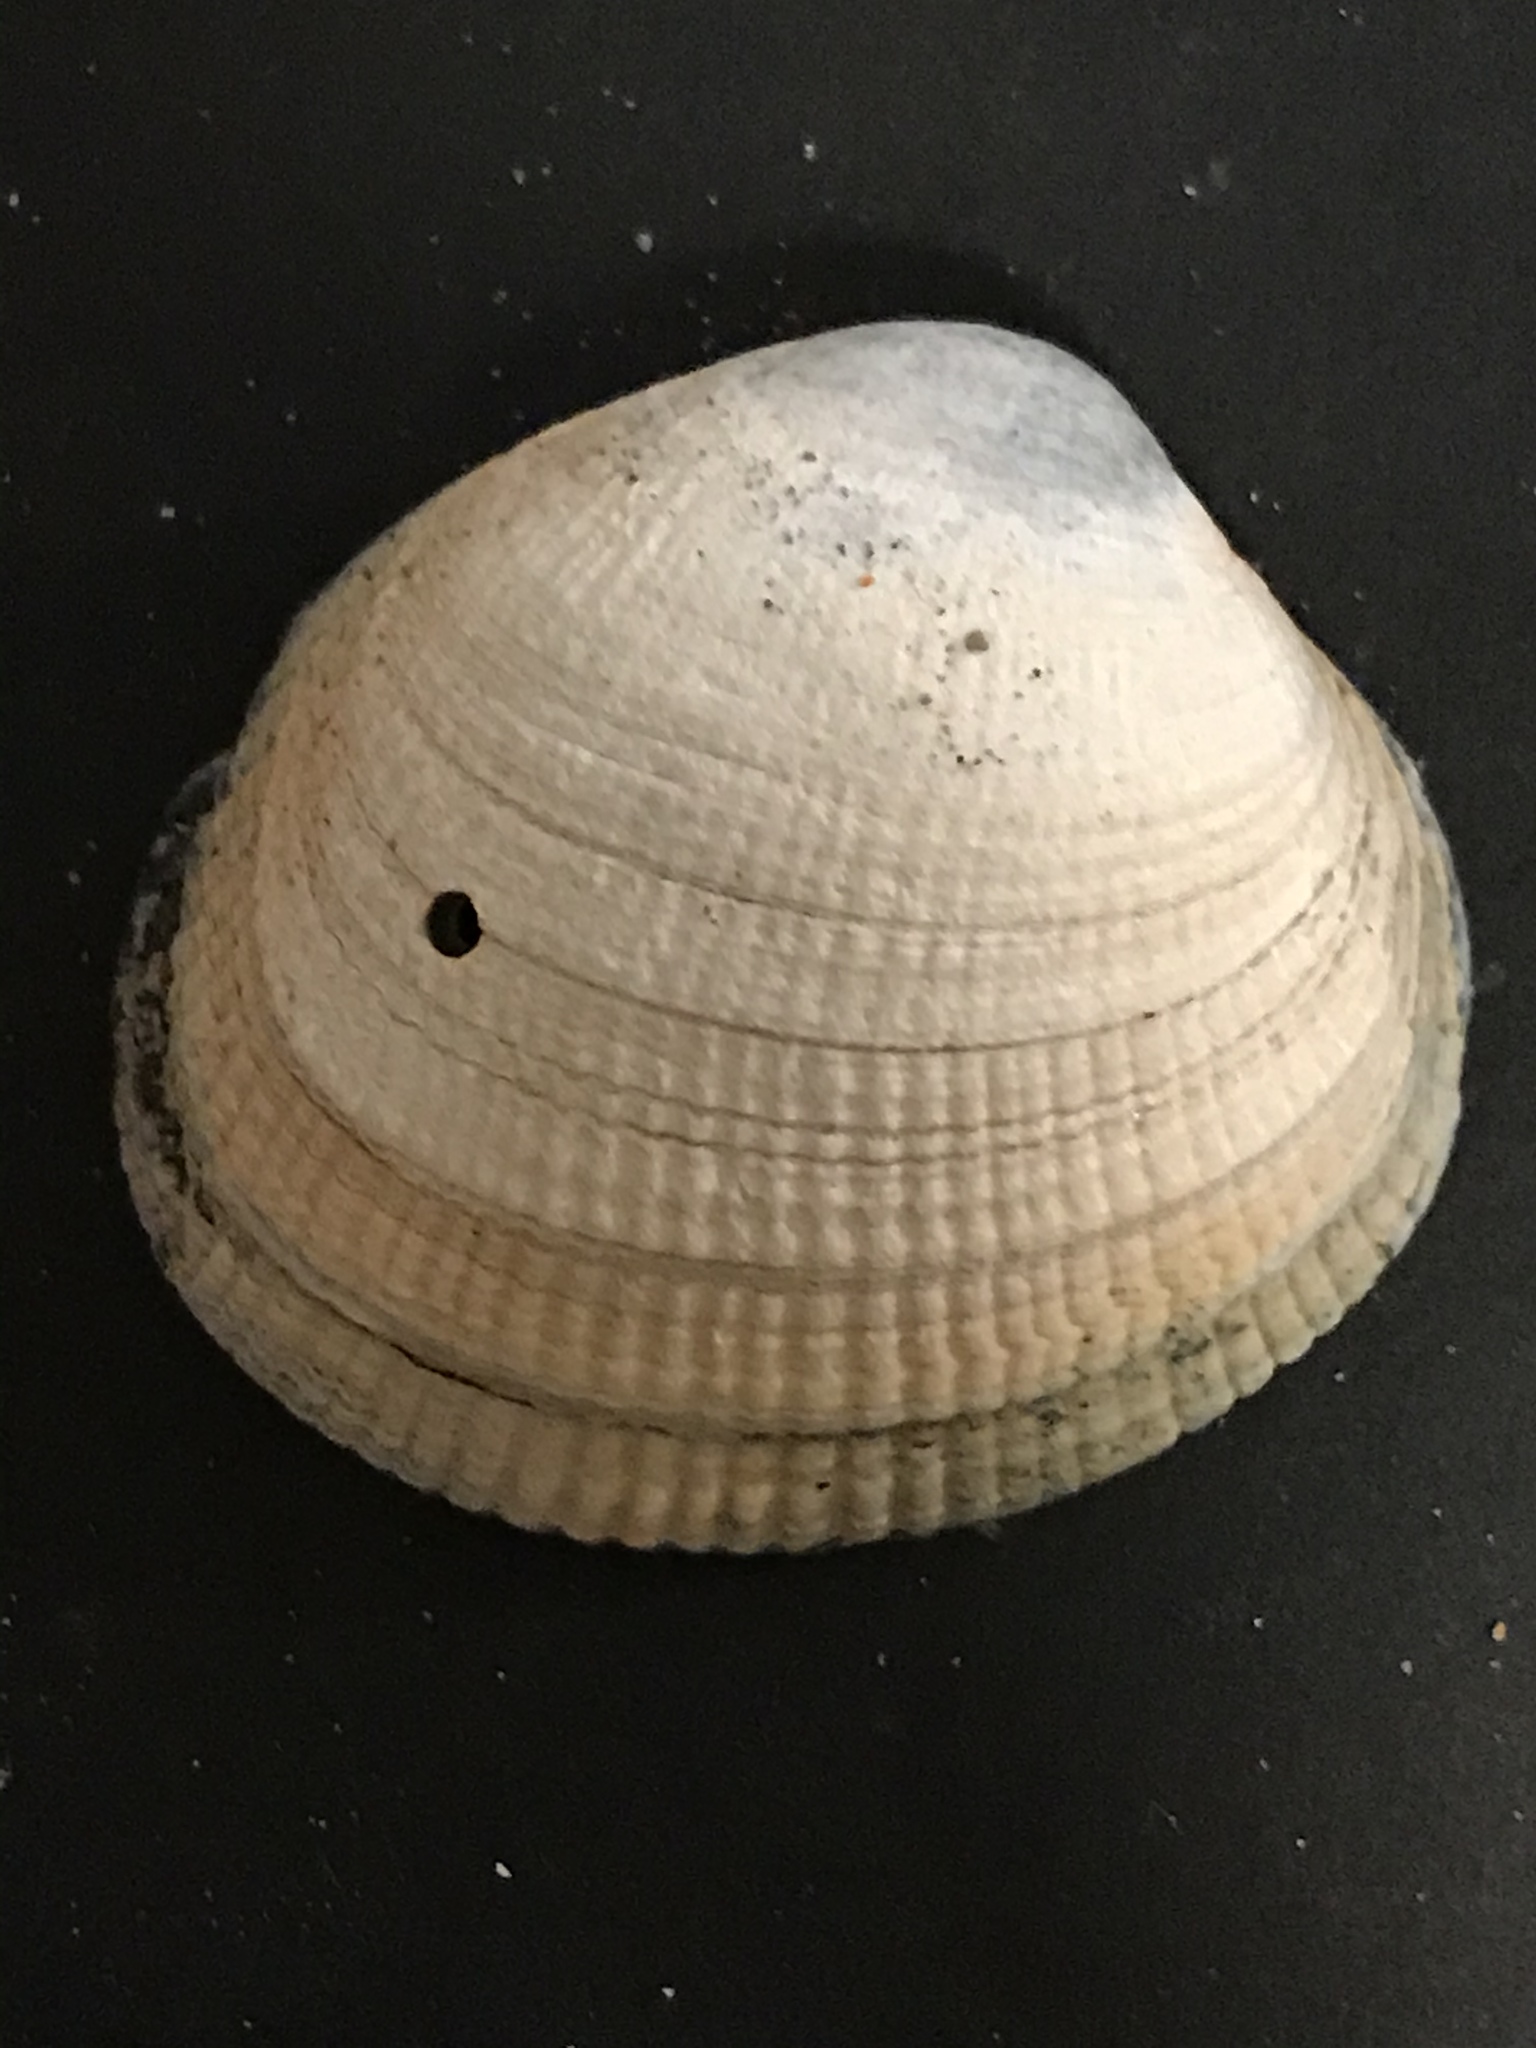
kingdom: Animalia
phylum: Mollusca
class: Bivalvia
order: Venerida
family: Veneridae
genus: Leukoma
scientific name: Leukoma staminea
